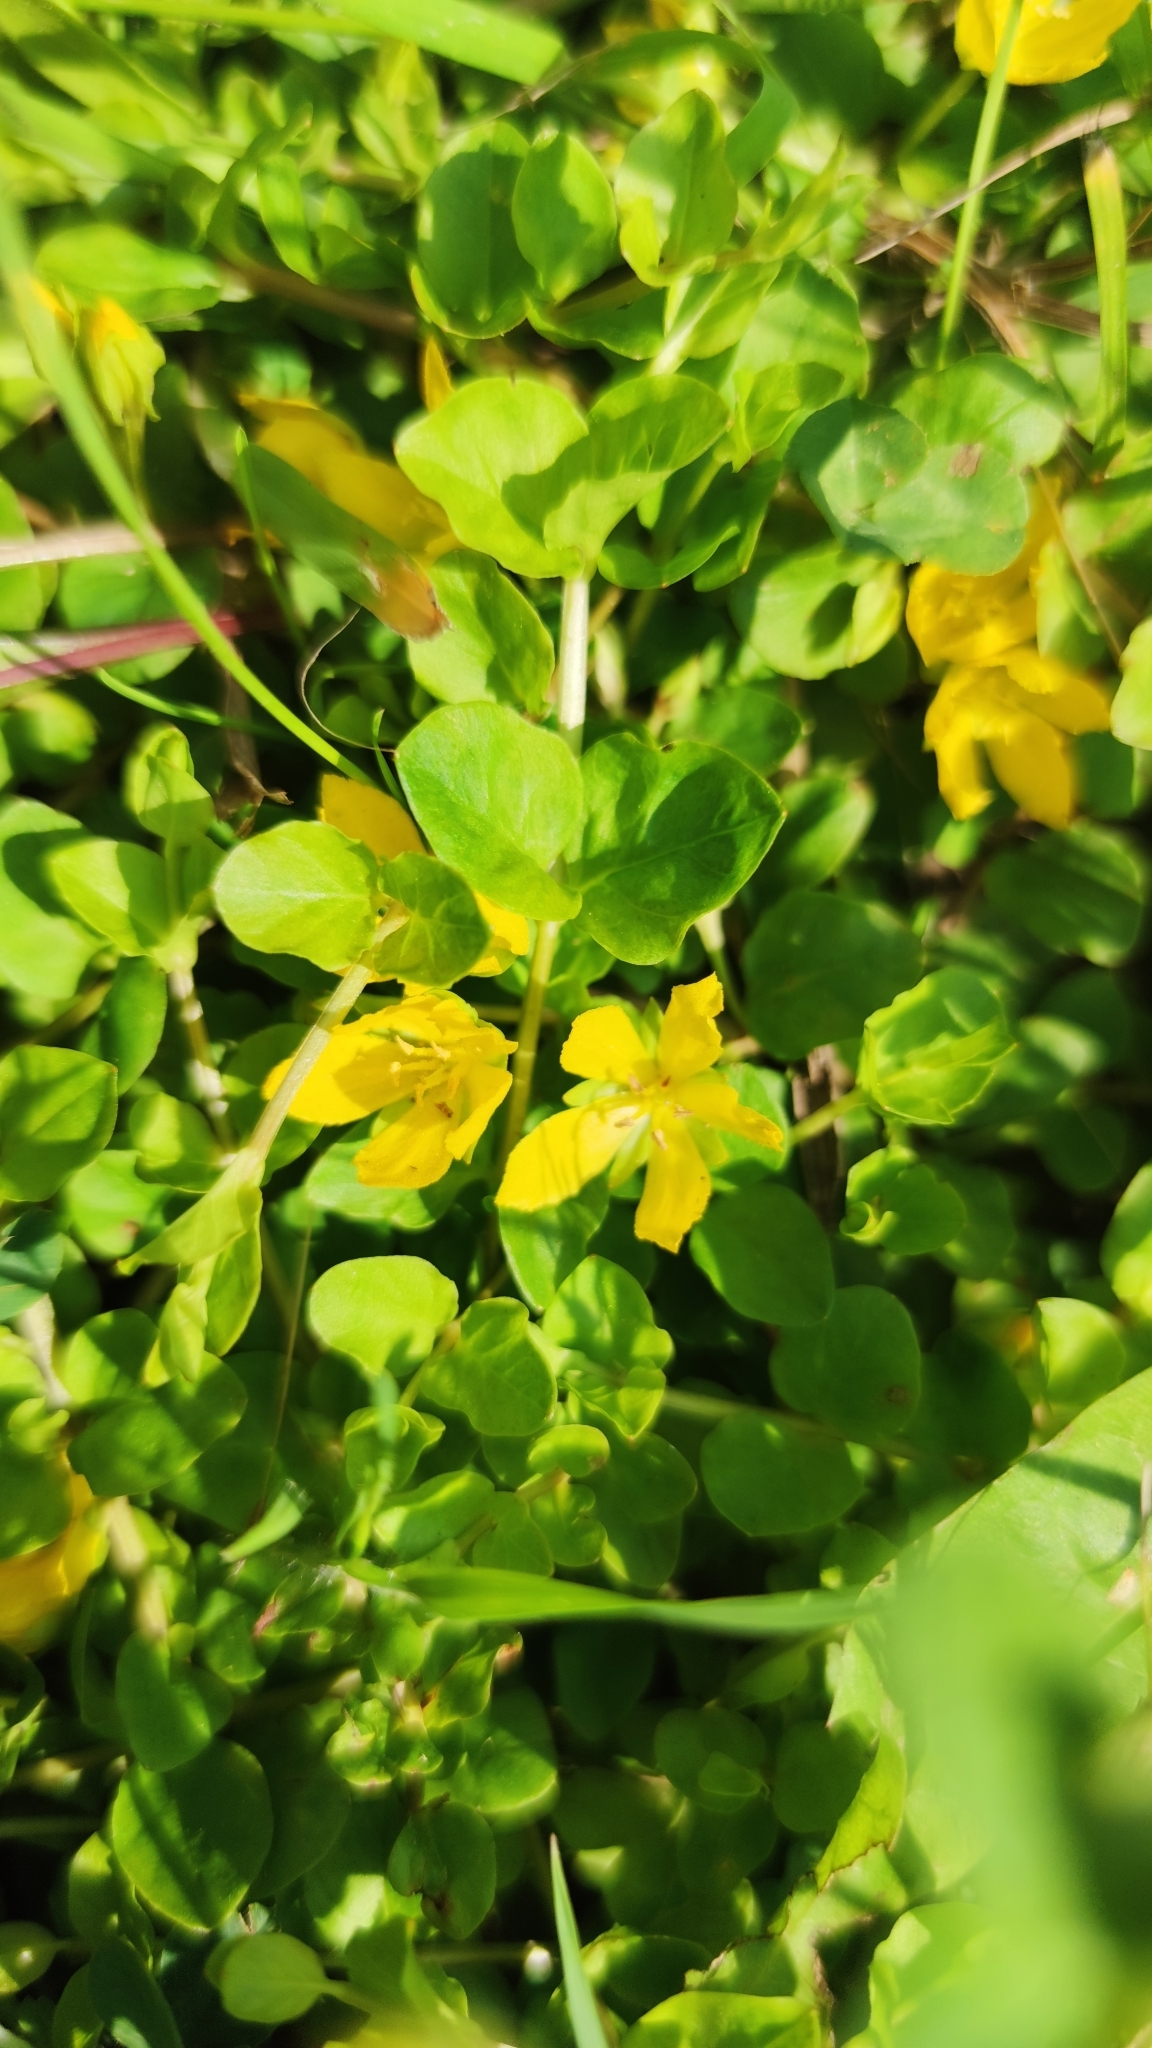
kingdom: Plantae
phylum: Tracheophyta
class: Magnoliopsida
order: Ericales
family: Primulaceae
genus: Lysimachia
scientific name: Lysimachia nummularia
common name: Moneywort
